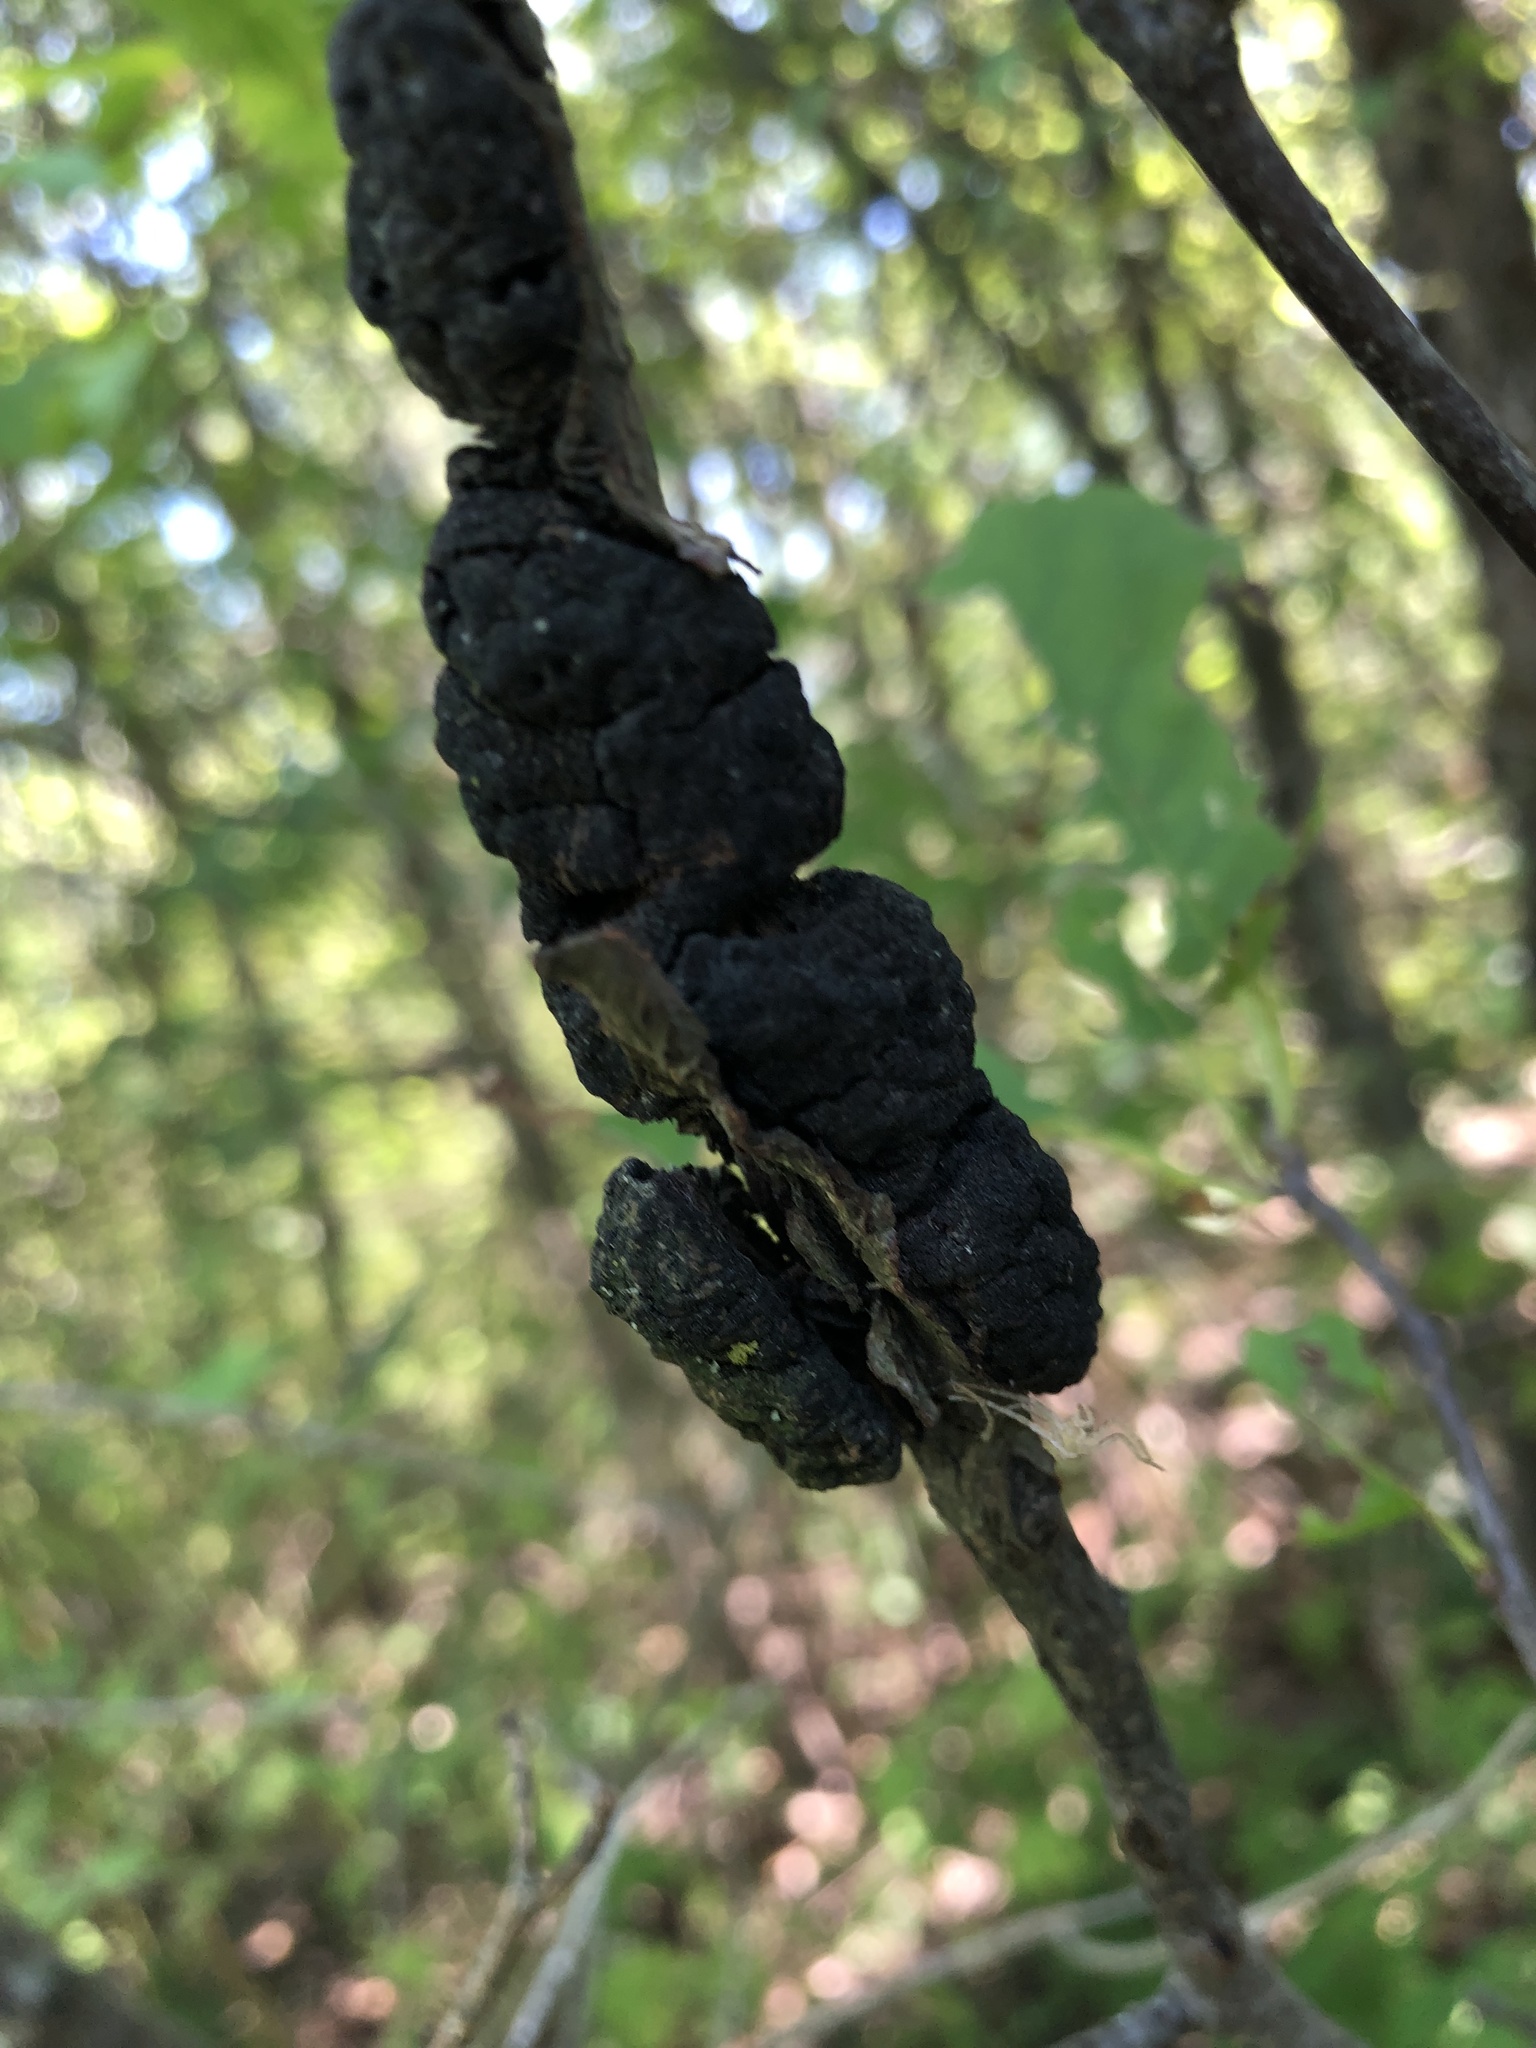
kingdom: Fungi
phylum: Ascomycota
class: Dothideomycetes
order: Venturiales
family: Venturiaceae
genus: Apiosporina
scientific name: Apiosporina morbosa
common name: Black knot
